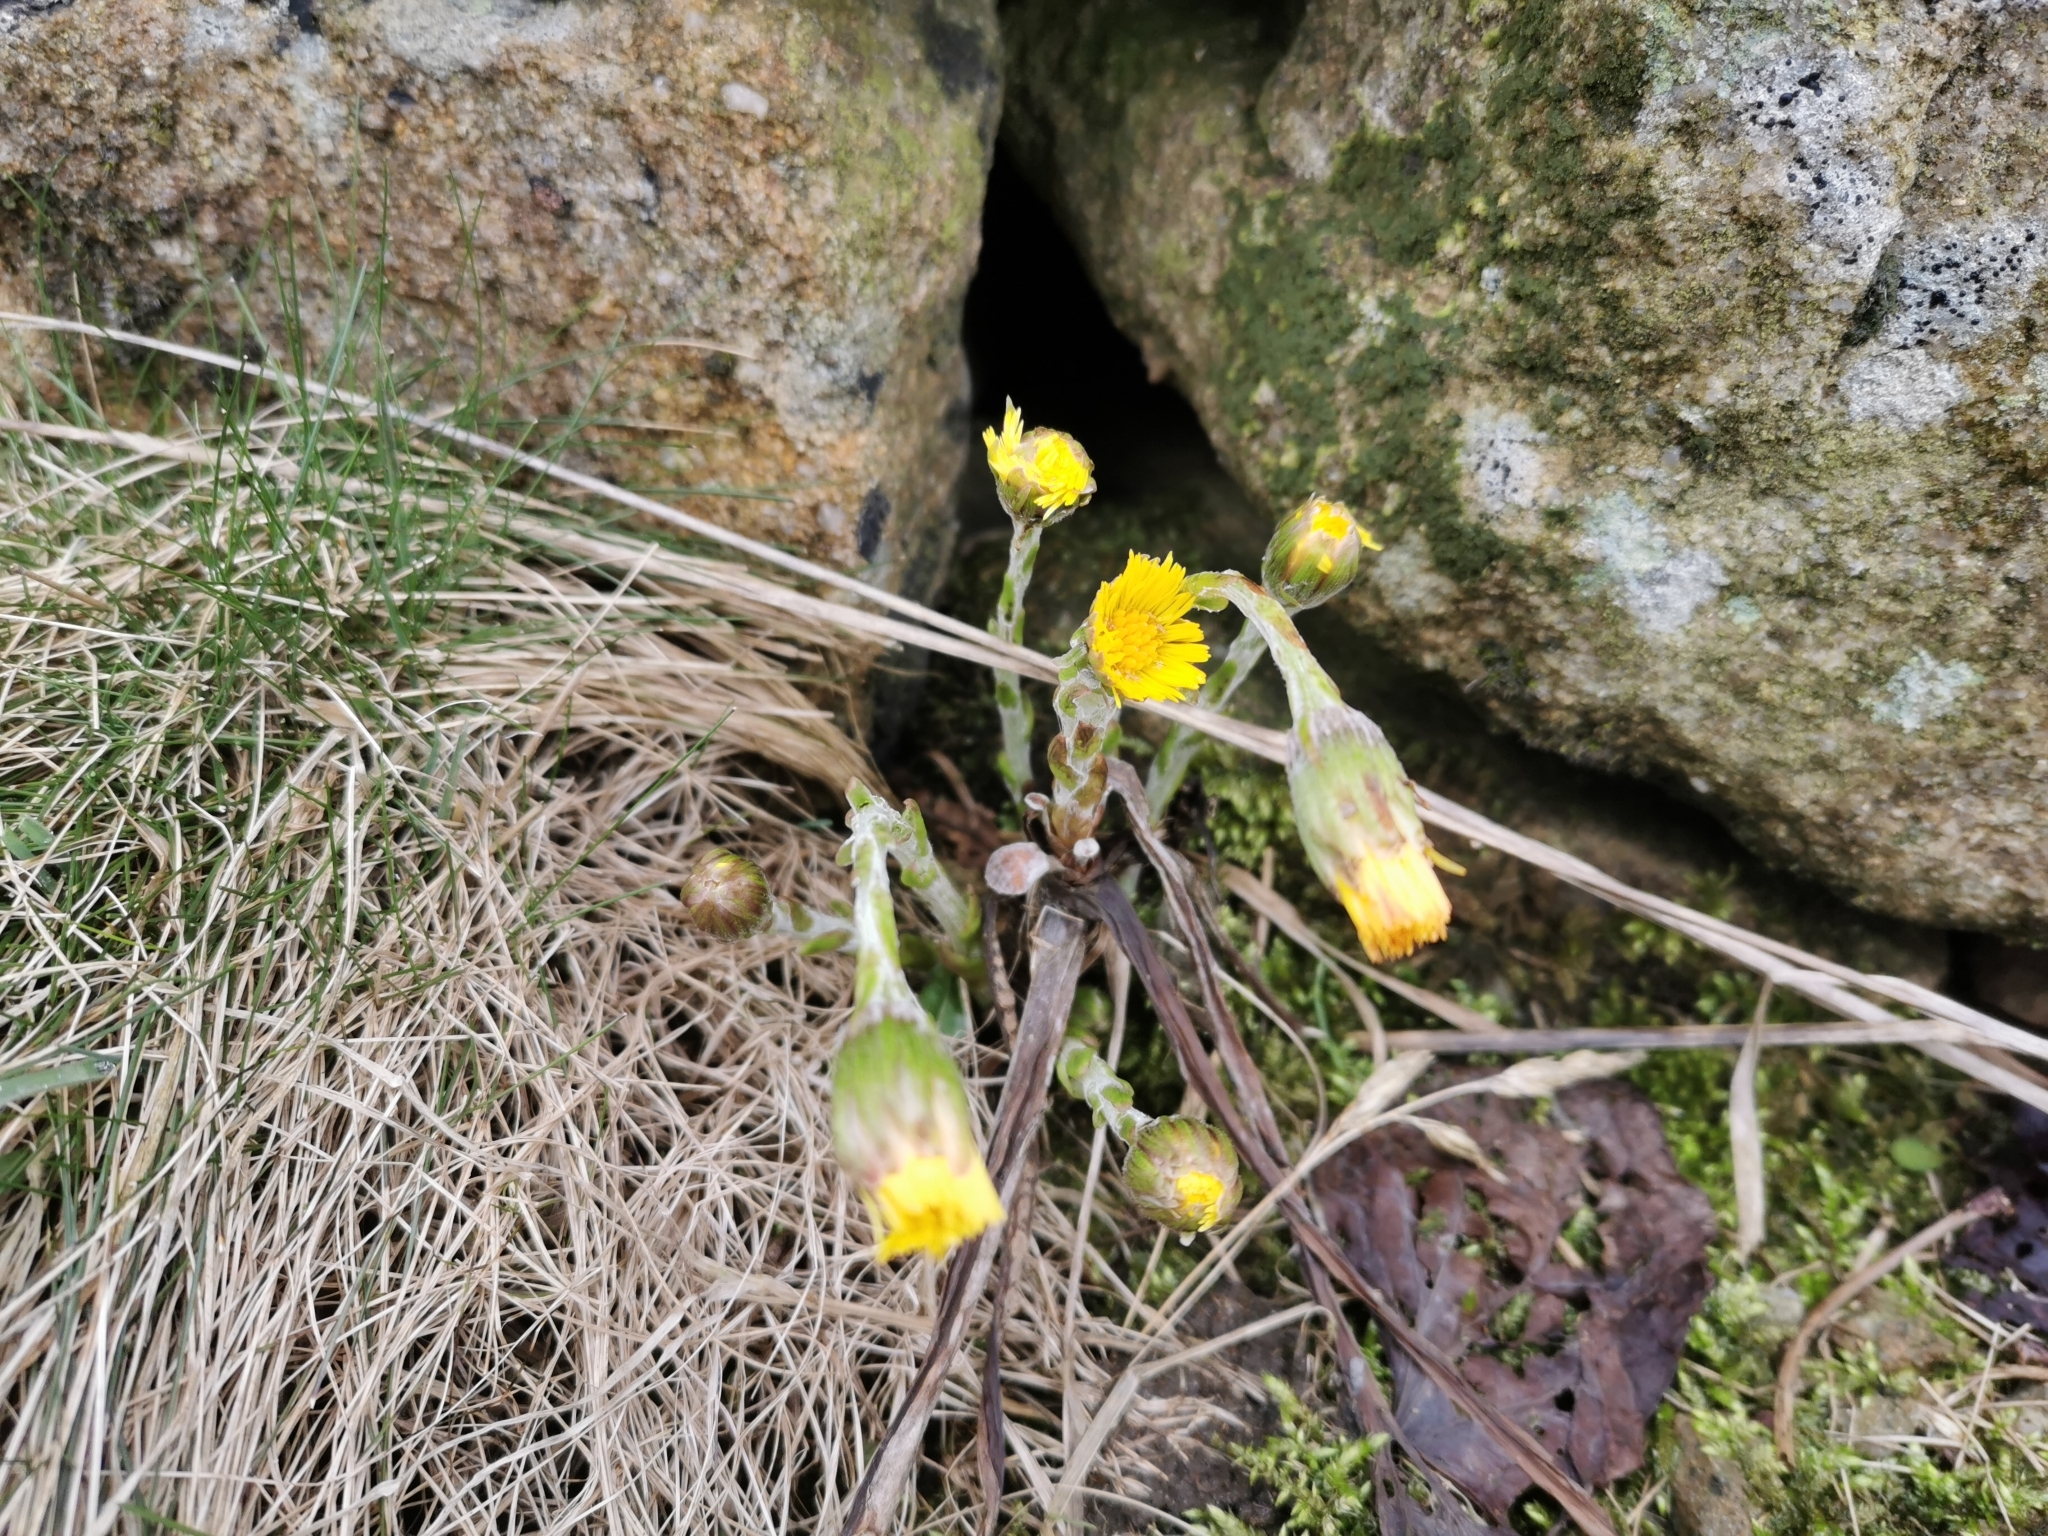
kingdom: Plantae
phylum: Tracheophyta
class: Magnoliopsida
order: Asterales
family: Asteraceae
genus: Tussilago
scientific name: Tussilago farfara
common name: Coltsfoot
